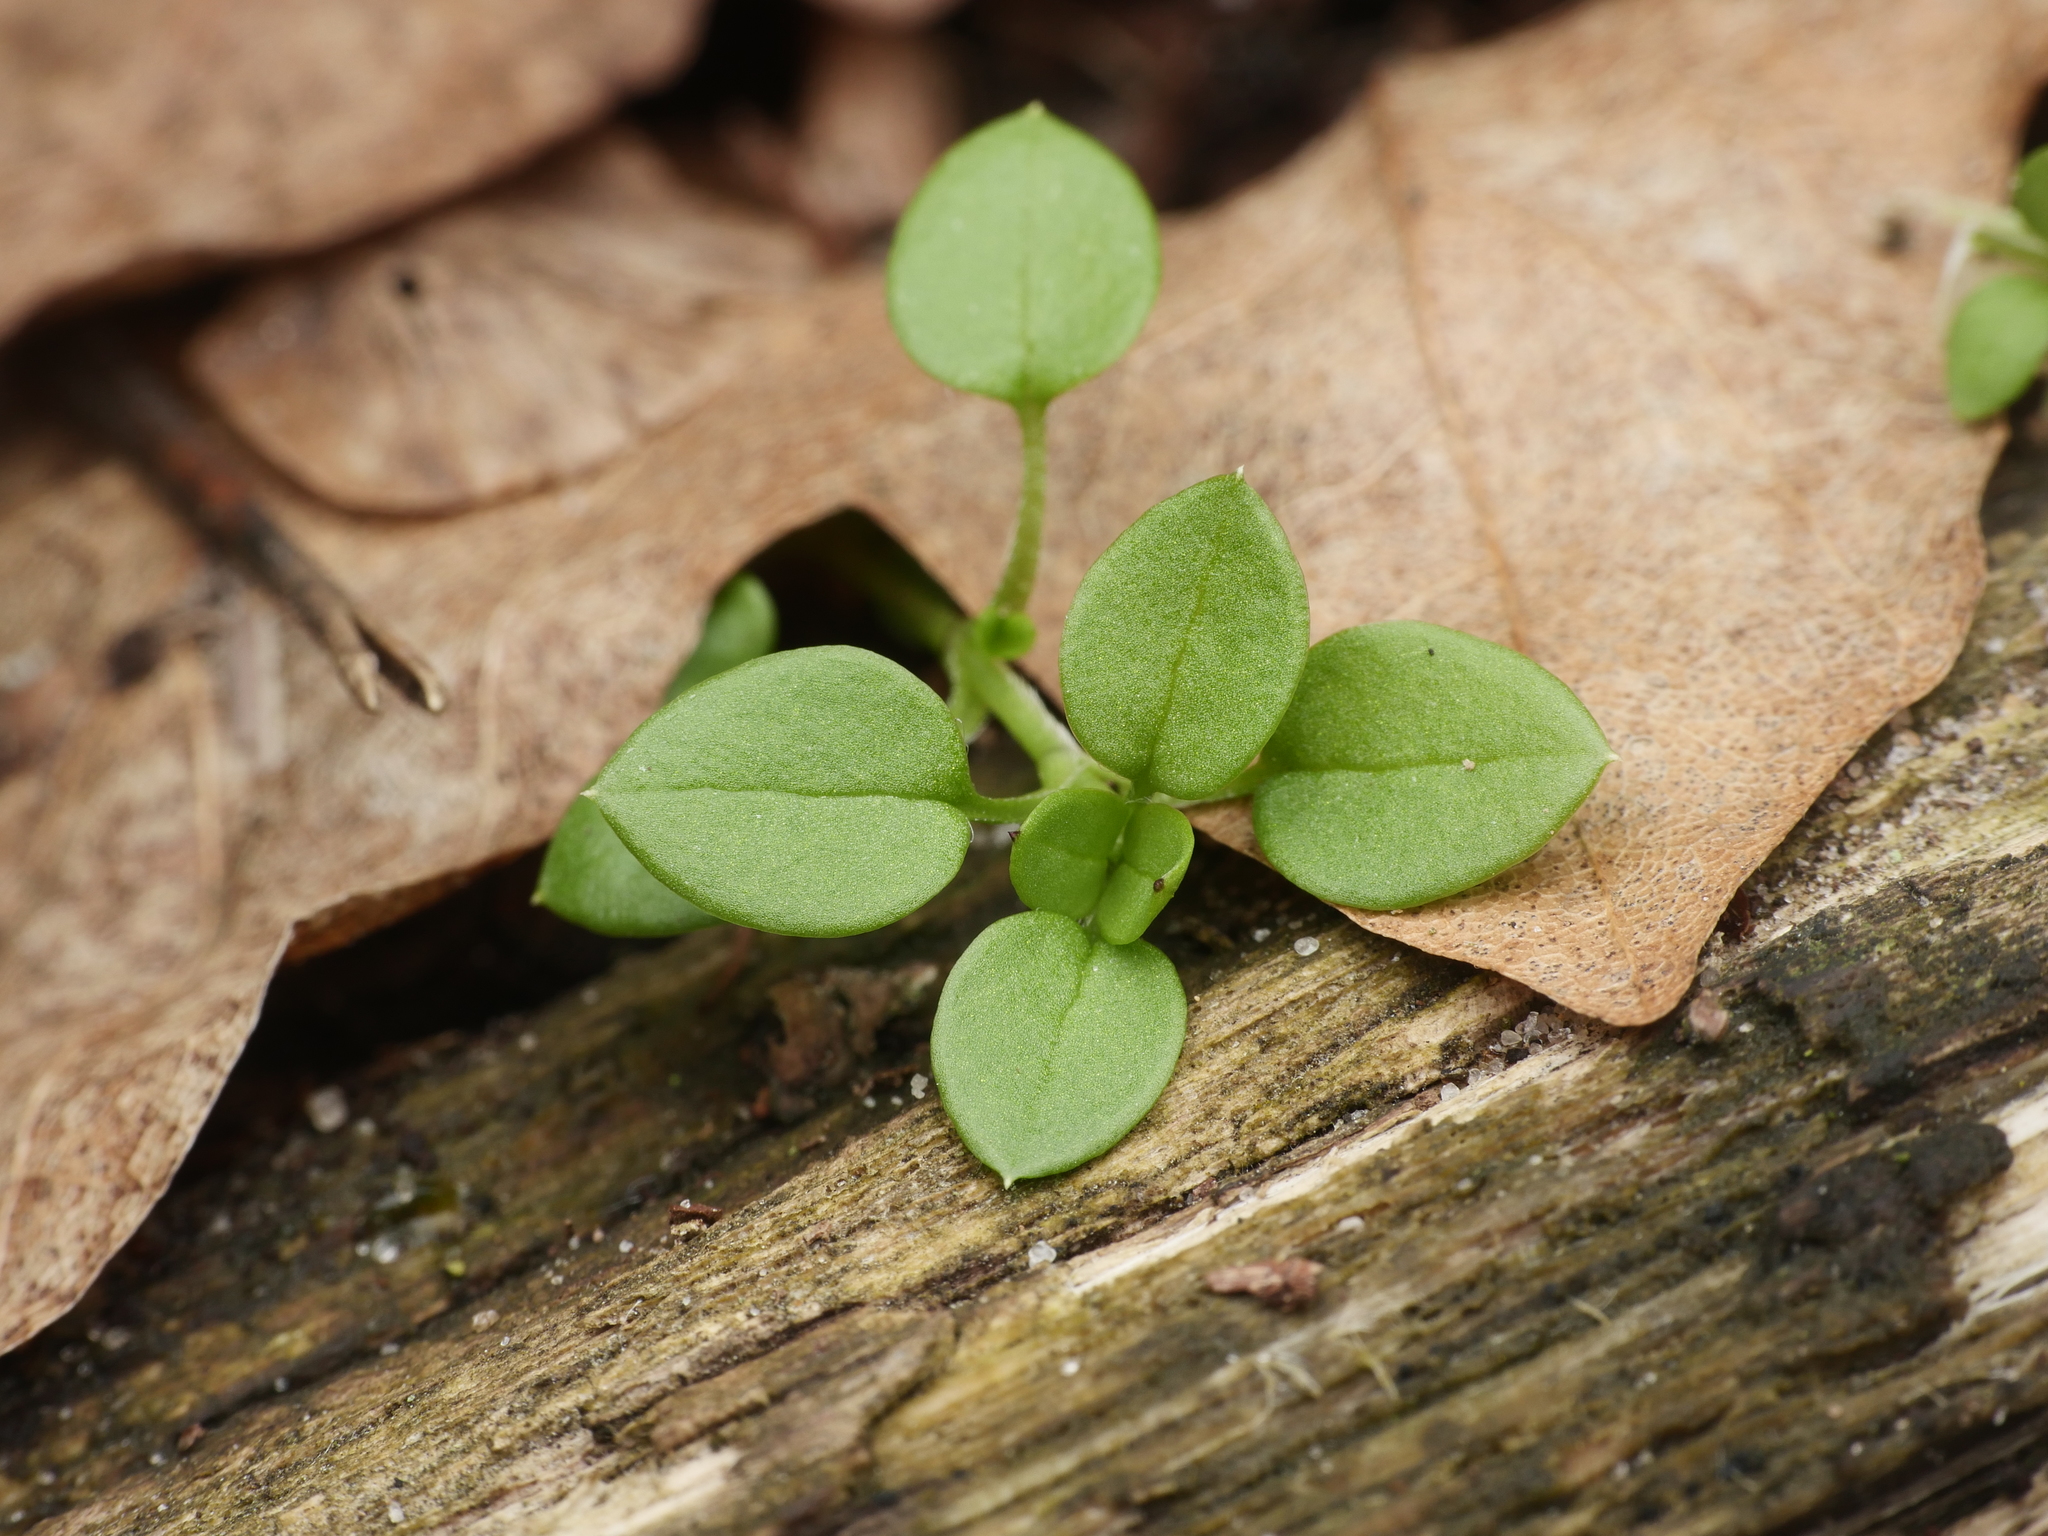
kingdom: Plantae
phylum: Tracheophyta
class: Magnoliopsida
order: Caryophyllales
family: Caryophyllaceae
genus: Stellaria
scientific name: Stellaria media
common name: Common chickweed
